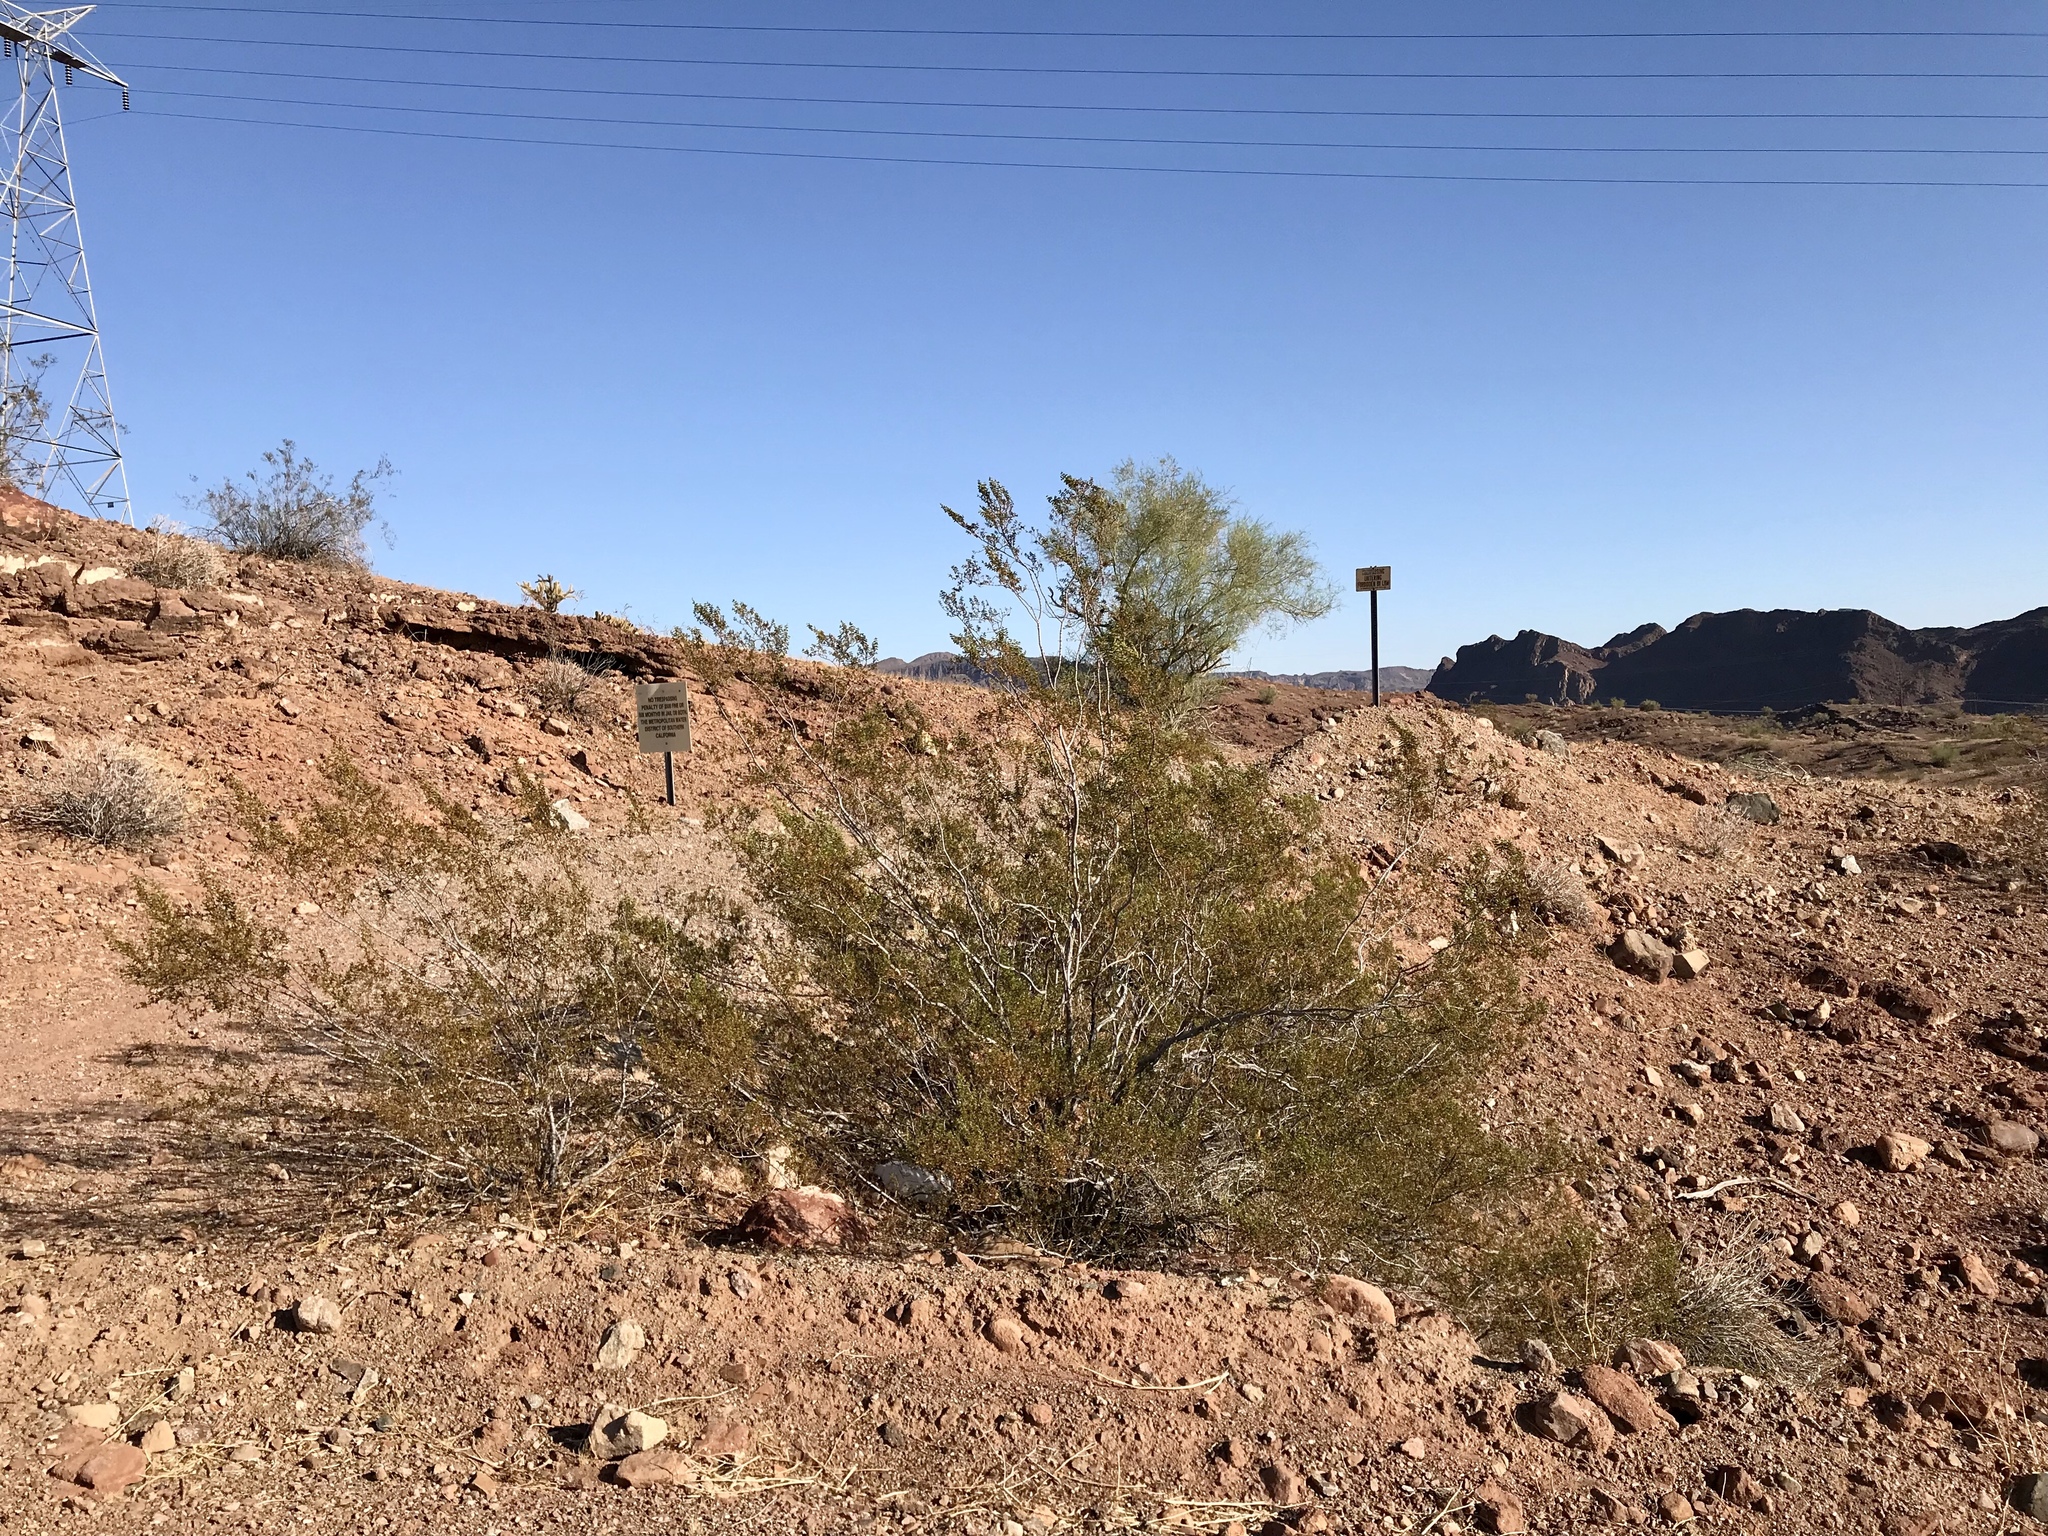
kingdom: Plantae
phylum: Tracheophyta
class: Magnoliopsida
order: Zygophyllales
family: Zygophyllaceae
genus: Larrea
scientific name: Larrea tridentata
